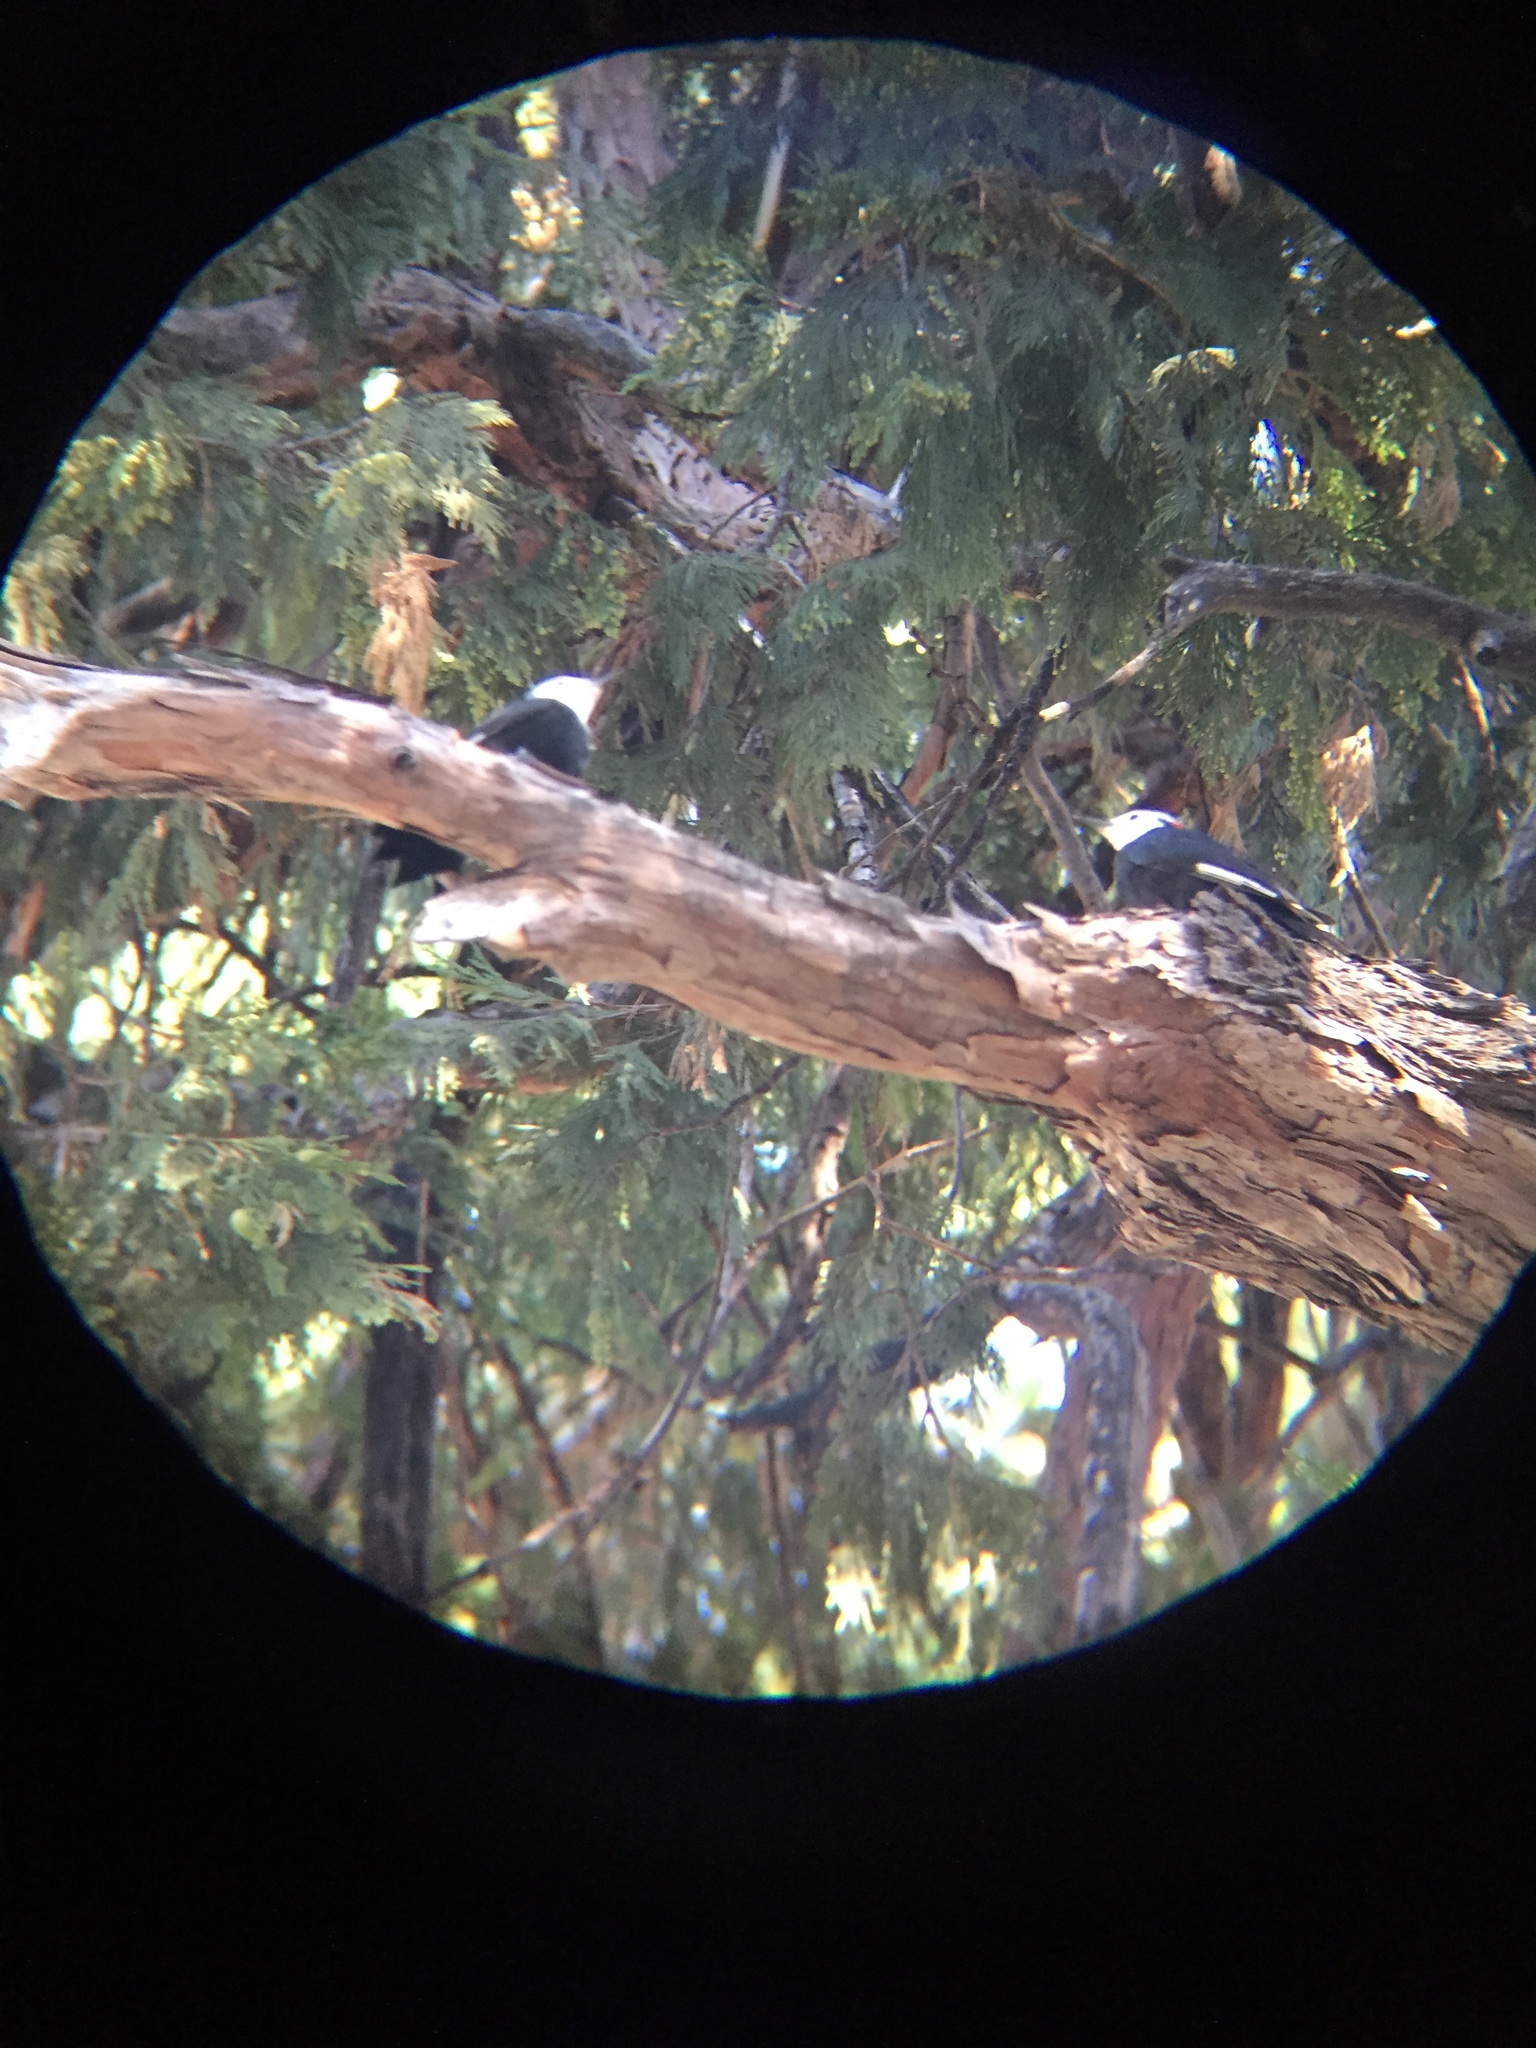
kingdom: Animalia
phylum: Chordata
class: Aves
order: Piciformes
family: Picidae
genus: Leuconotopicus
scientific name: Leuconotopicus albolarvatus
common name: White-headed woodpecker
